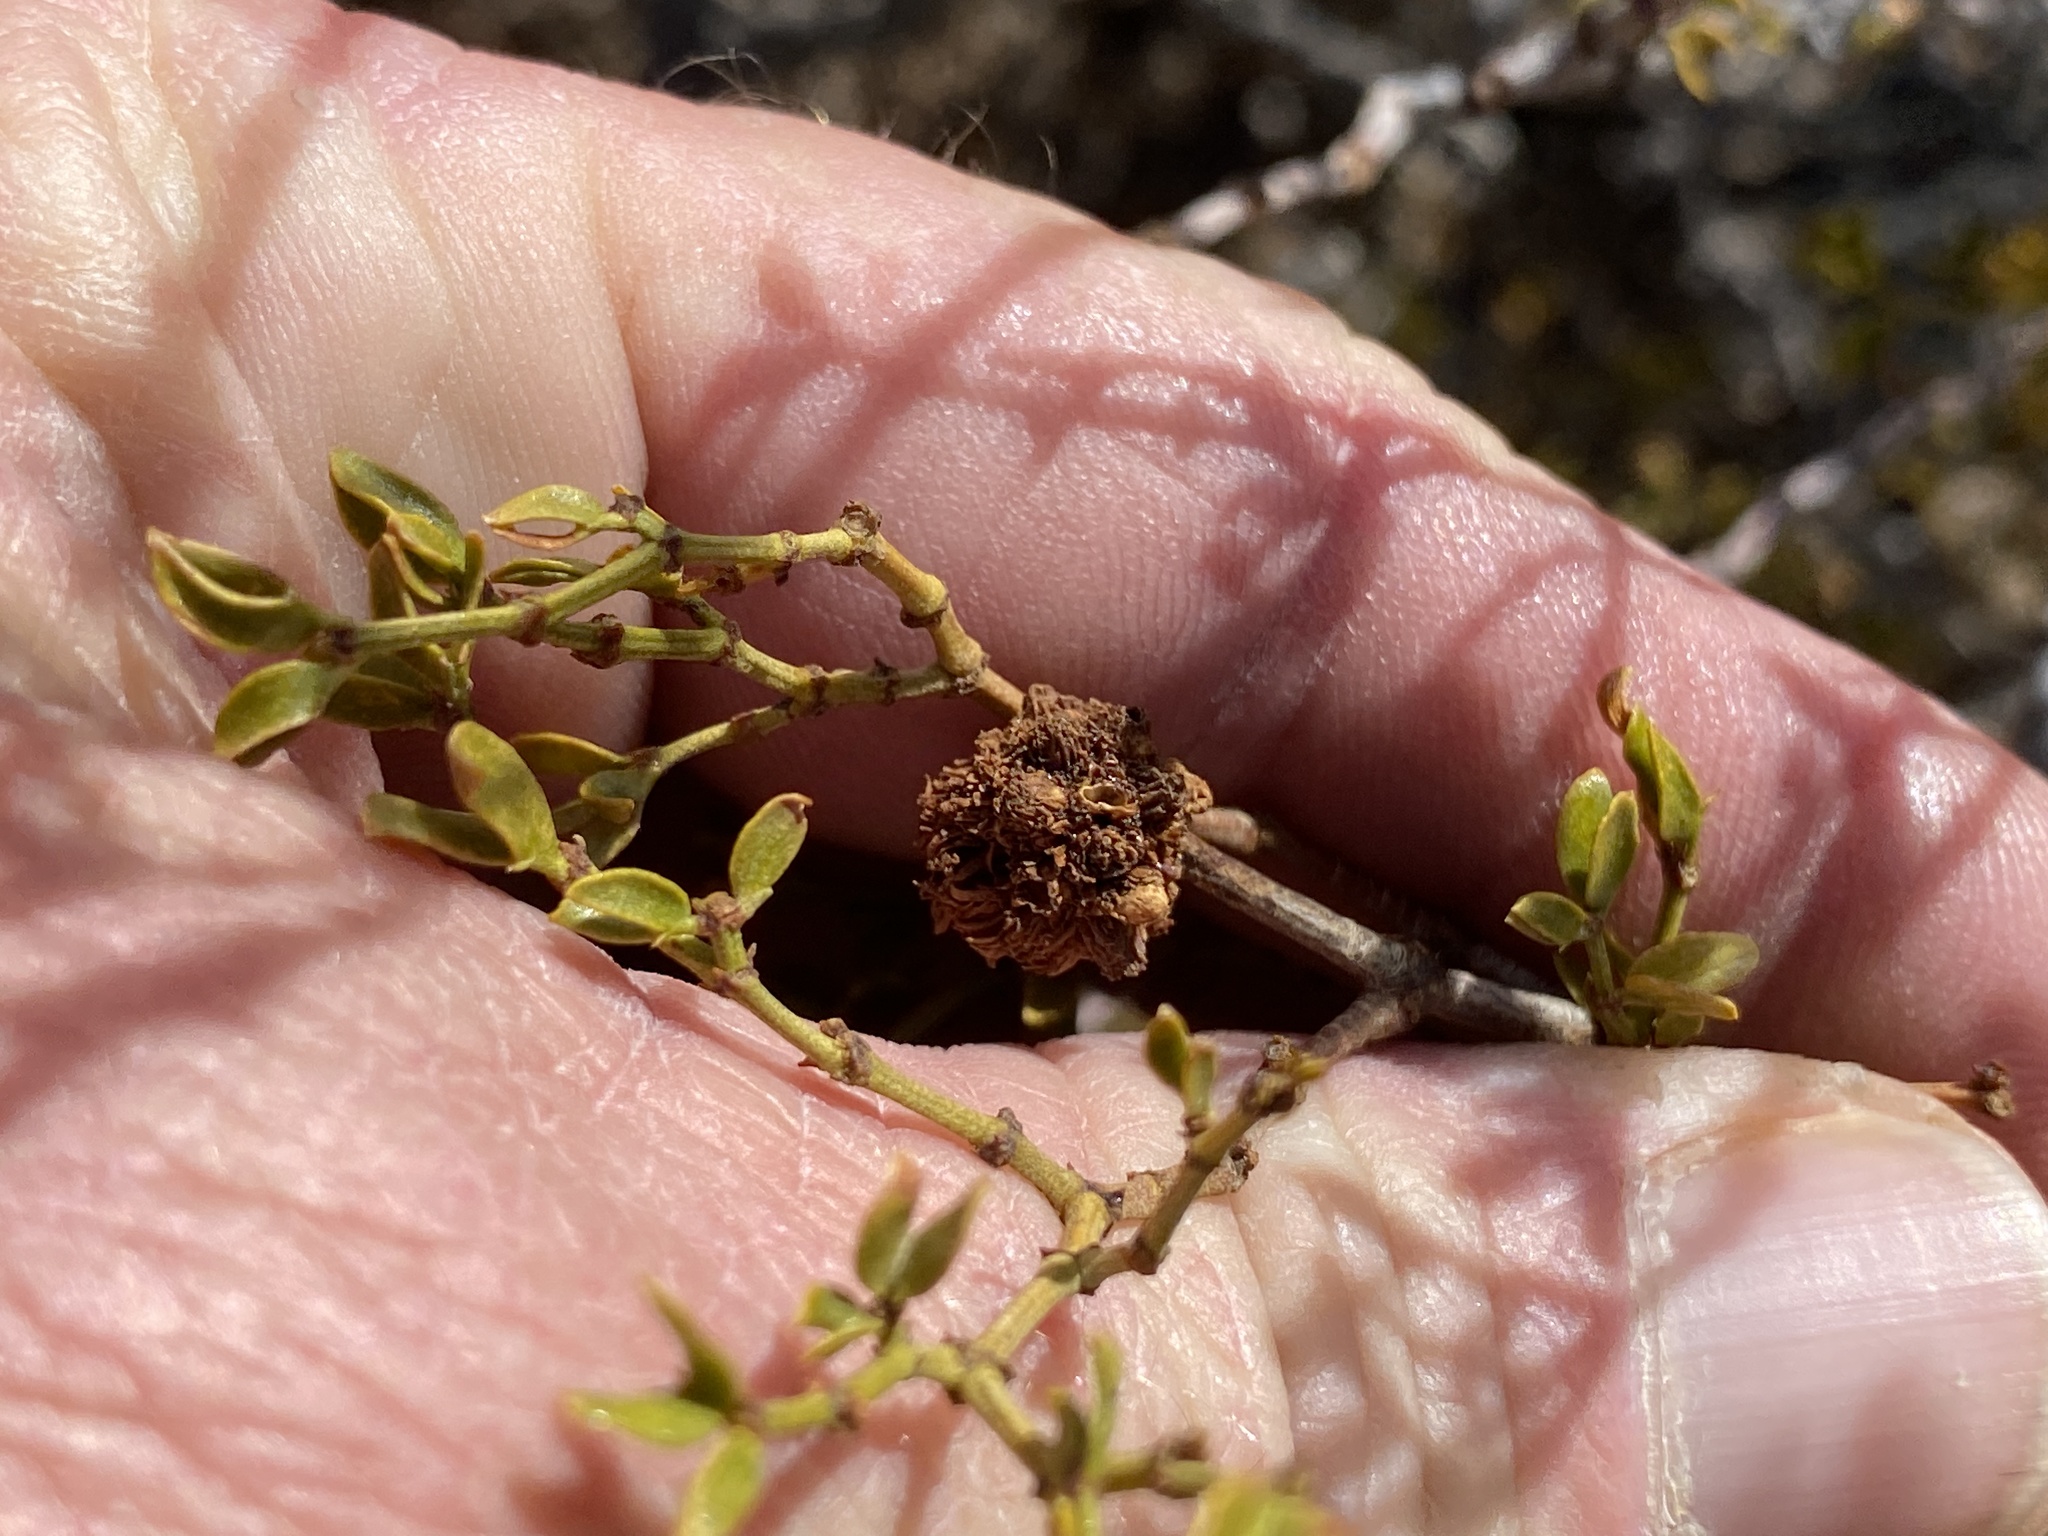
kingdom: Animalia
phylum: Arthropoda
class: Insecta
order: Diptera
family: Cecidomyiidae
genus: Asphondylia
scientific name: Asphondylia auripila
